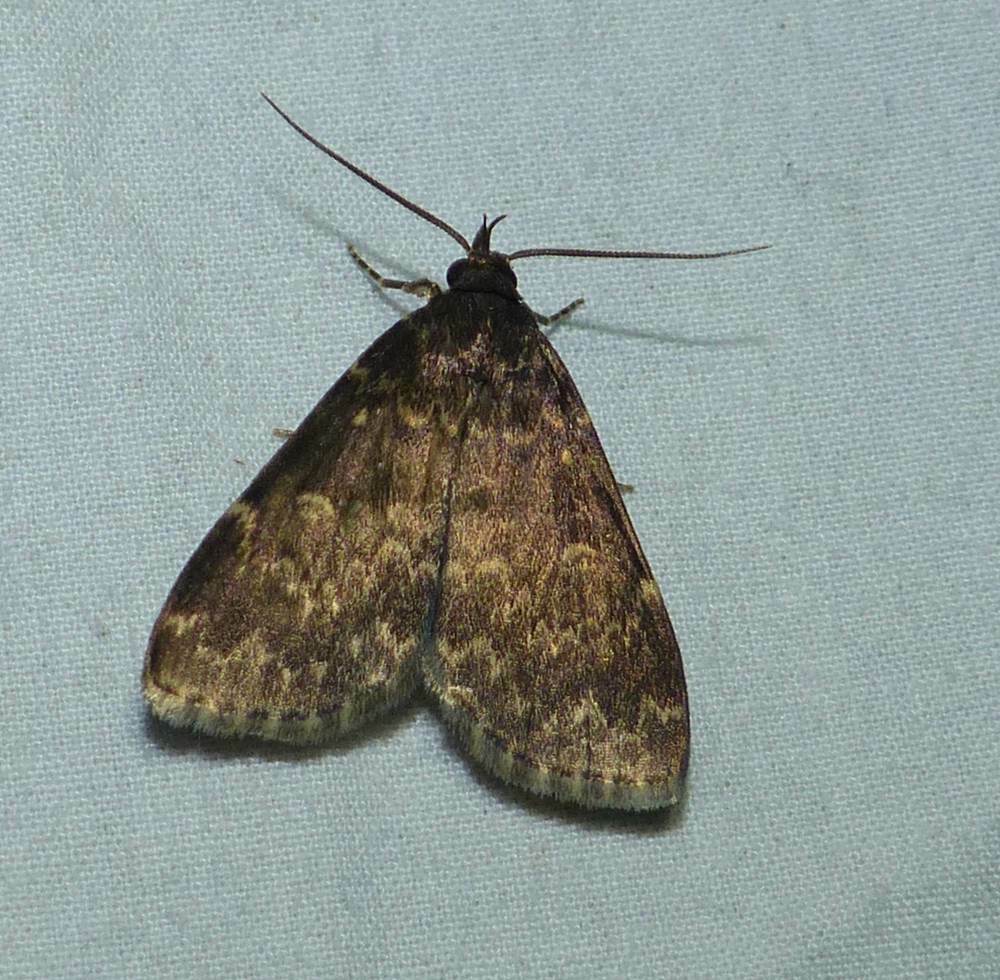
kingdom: Animalia
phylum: Arthropoda
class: Insecta
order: Lepidoptera
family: Erebidae
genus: Idia
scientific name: Idia lubricalis
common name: Twin-striped tabby
